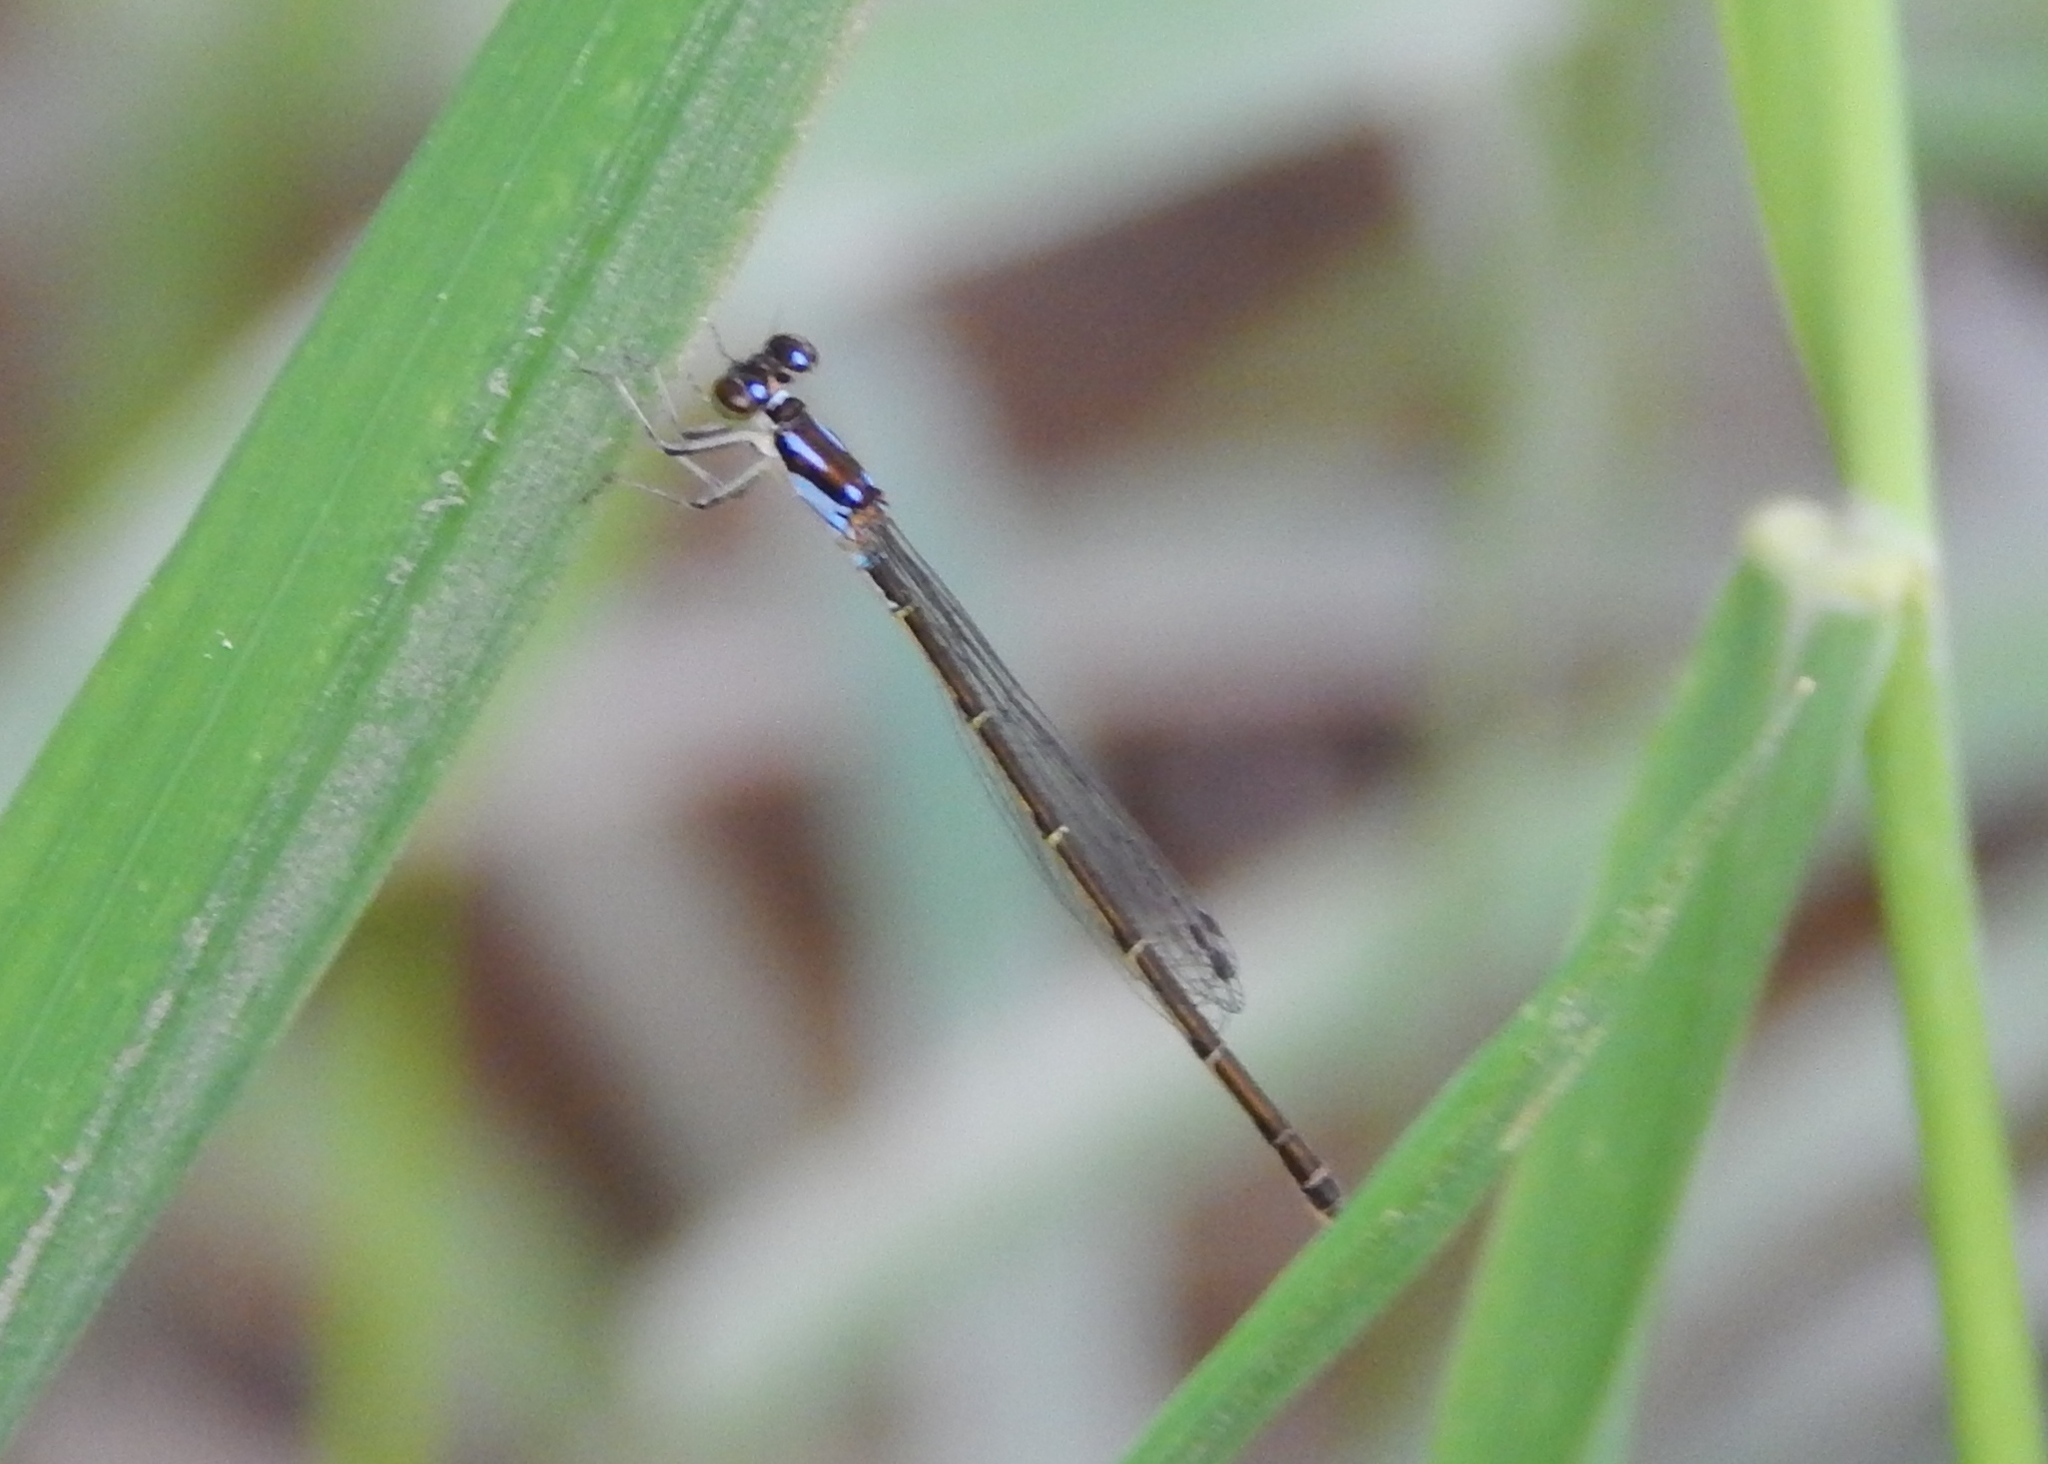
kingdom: Animalia
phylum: Arthropoda
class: Insecta
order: Odonata
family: Coenagrionidae
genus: Ischnura
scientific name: Ischnura posita
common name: Fragile forktail
